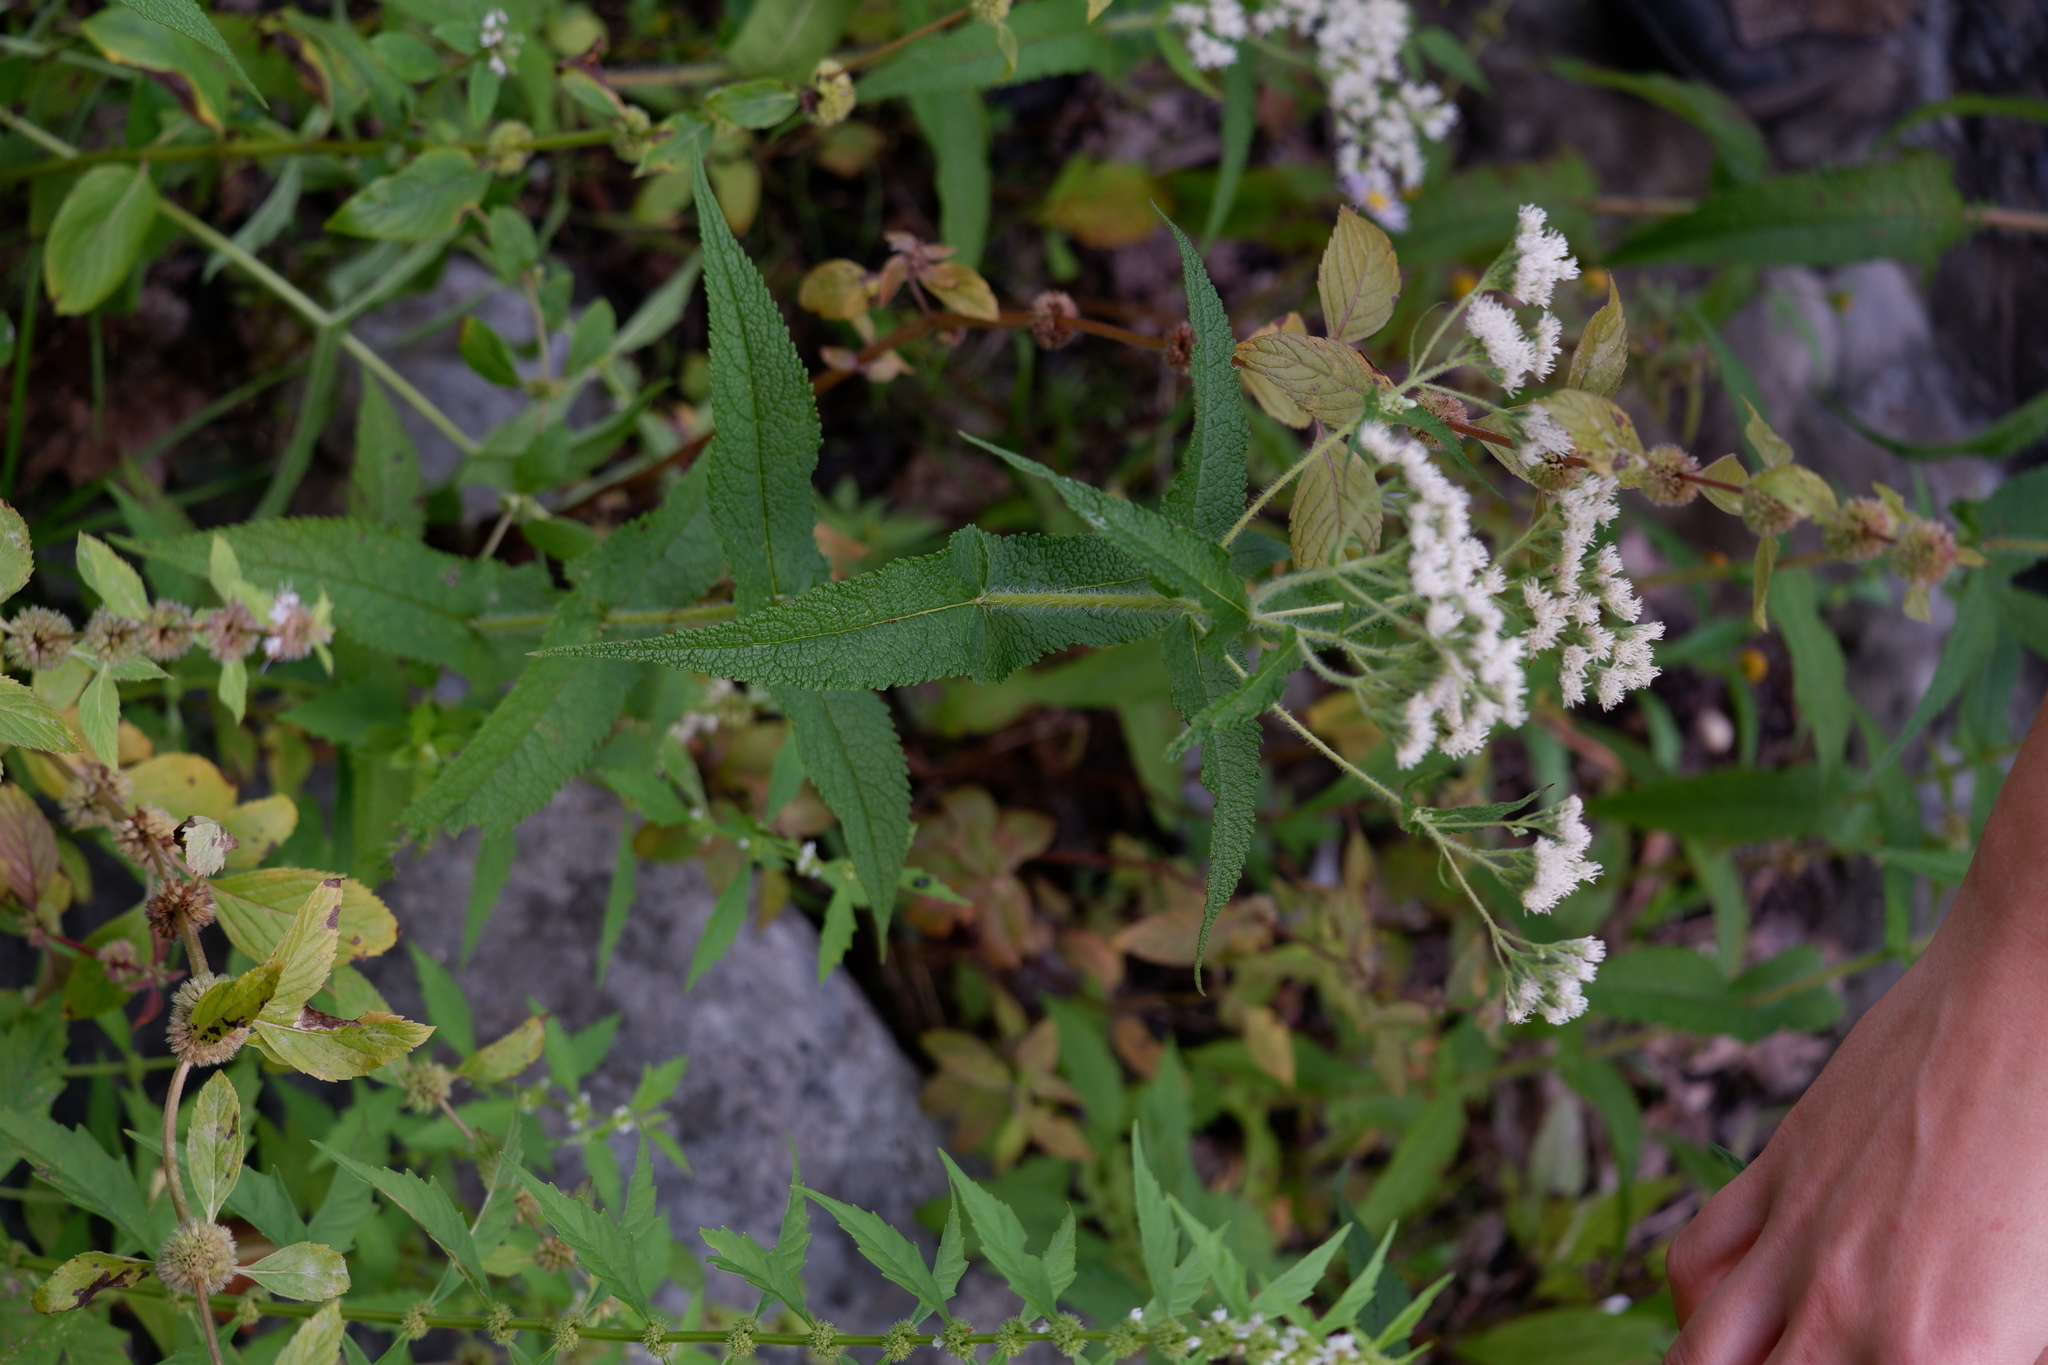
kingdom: Plantae
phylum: Tracheophyta
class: Magnoliopsida
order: Asterales
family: Asteraceae
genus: Eupatorium
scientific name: Eupatorium perfoliatum
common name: Boneset
